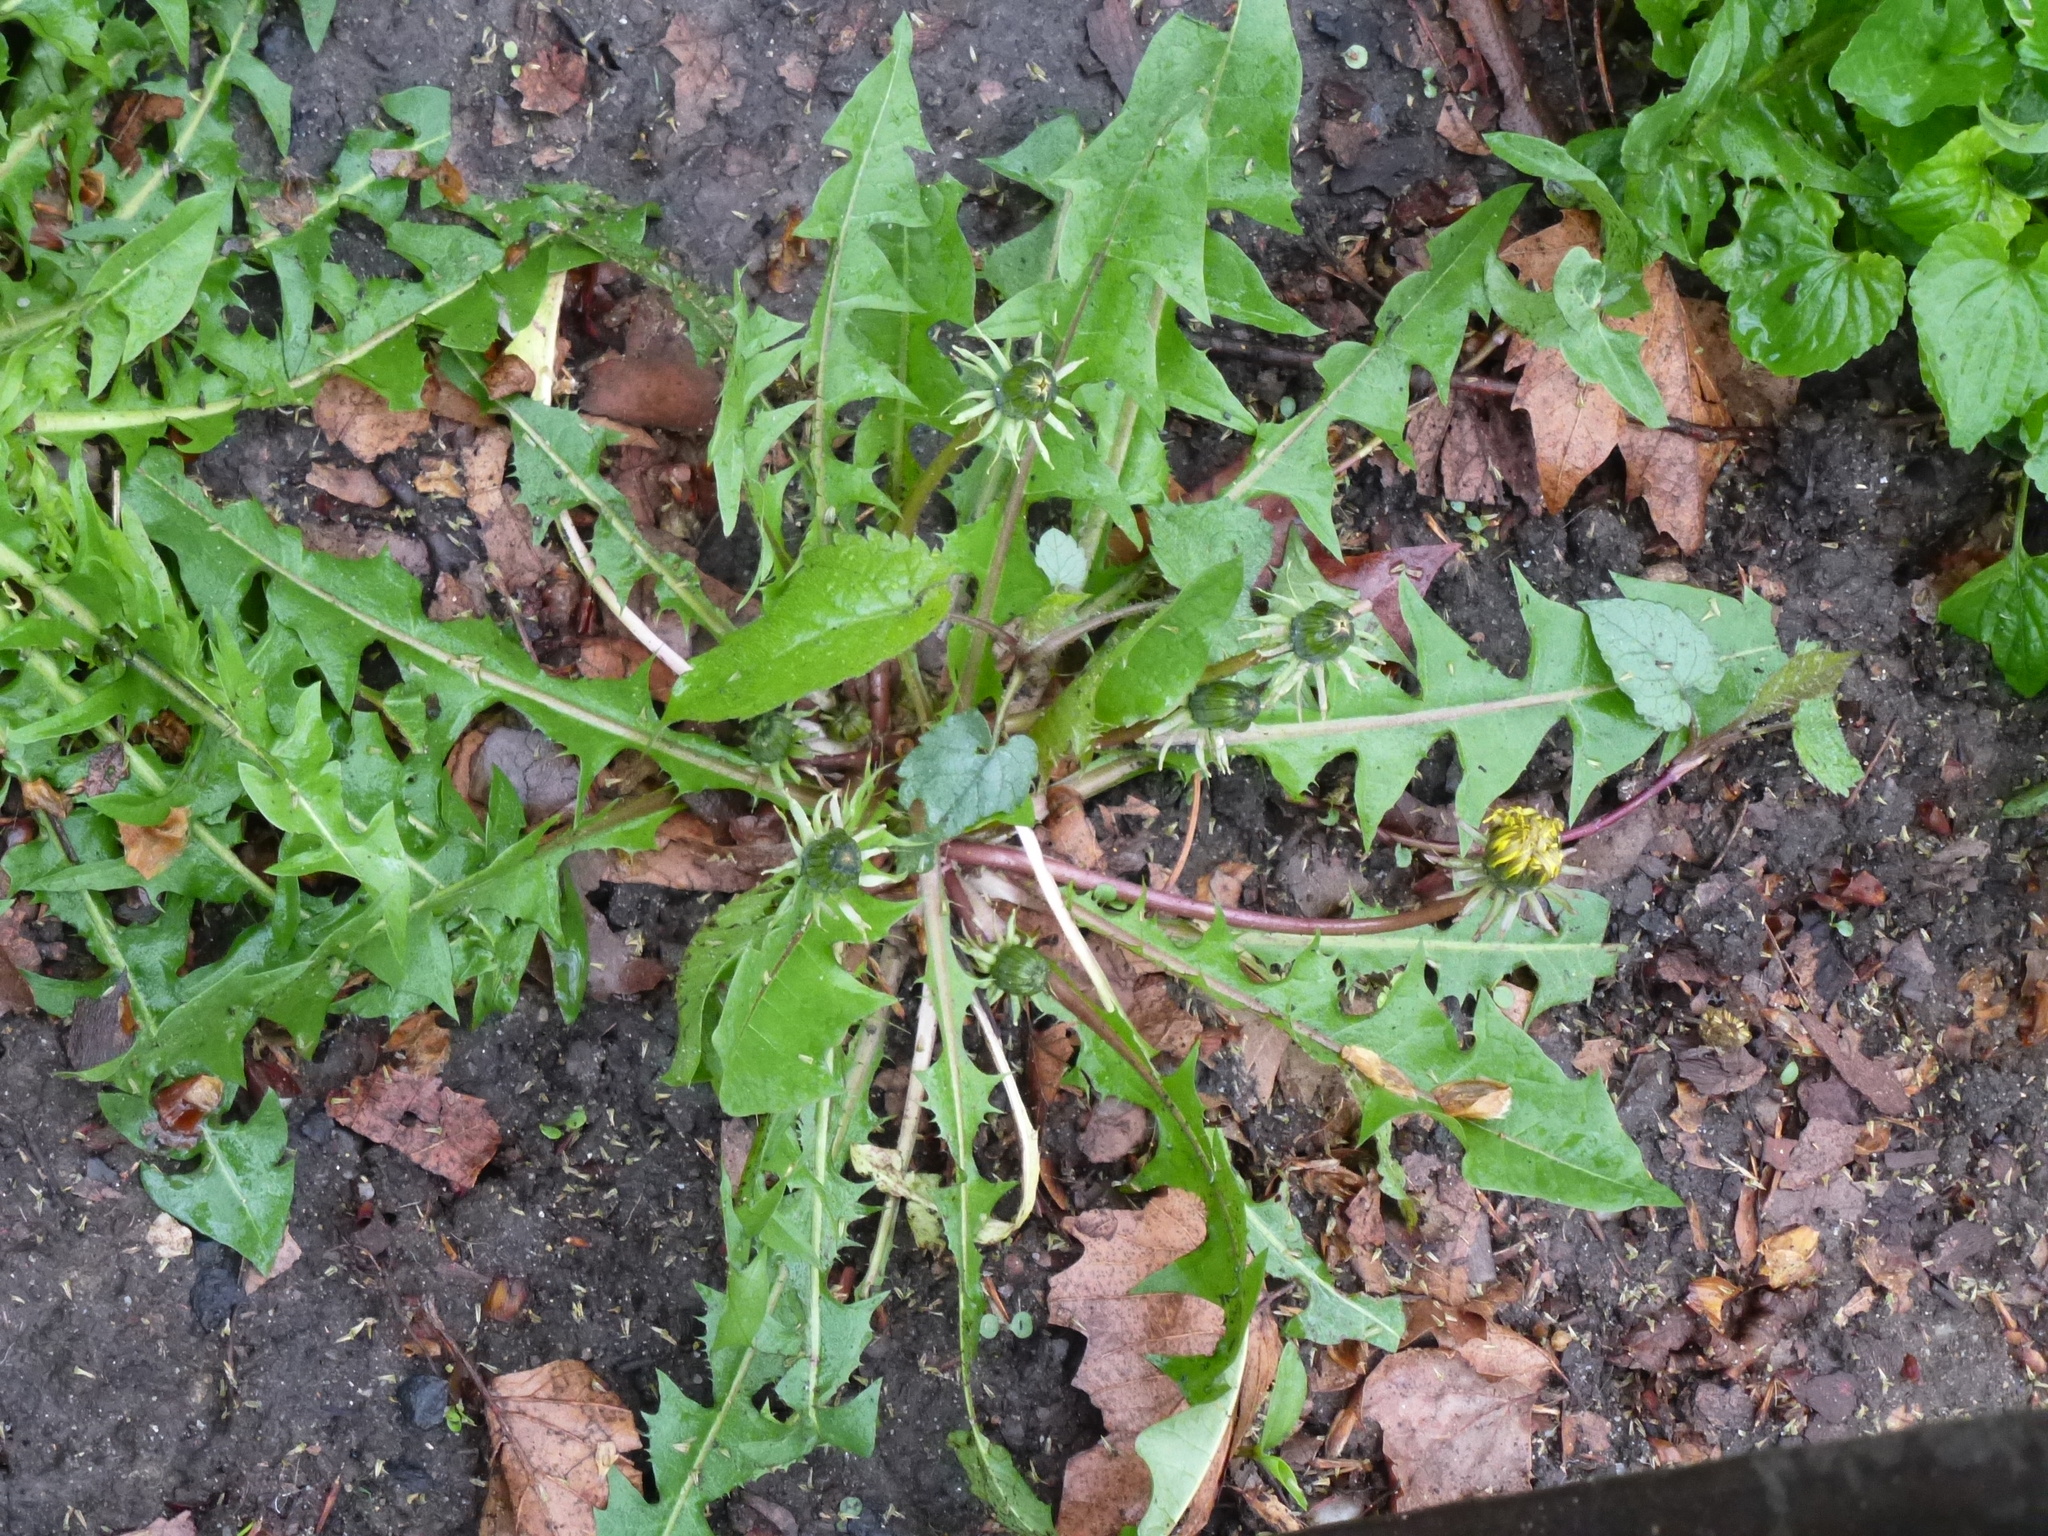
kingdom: Plantae
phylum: Tracheophyta
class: Magnoliopsida
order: Asterales
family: Asteraceae
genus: Taraxacum
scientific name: Taraxacum officinale
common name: Common dandelion
